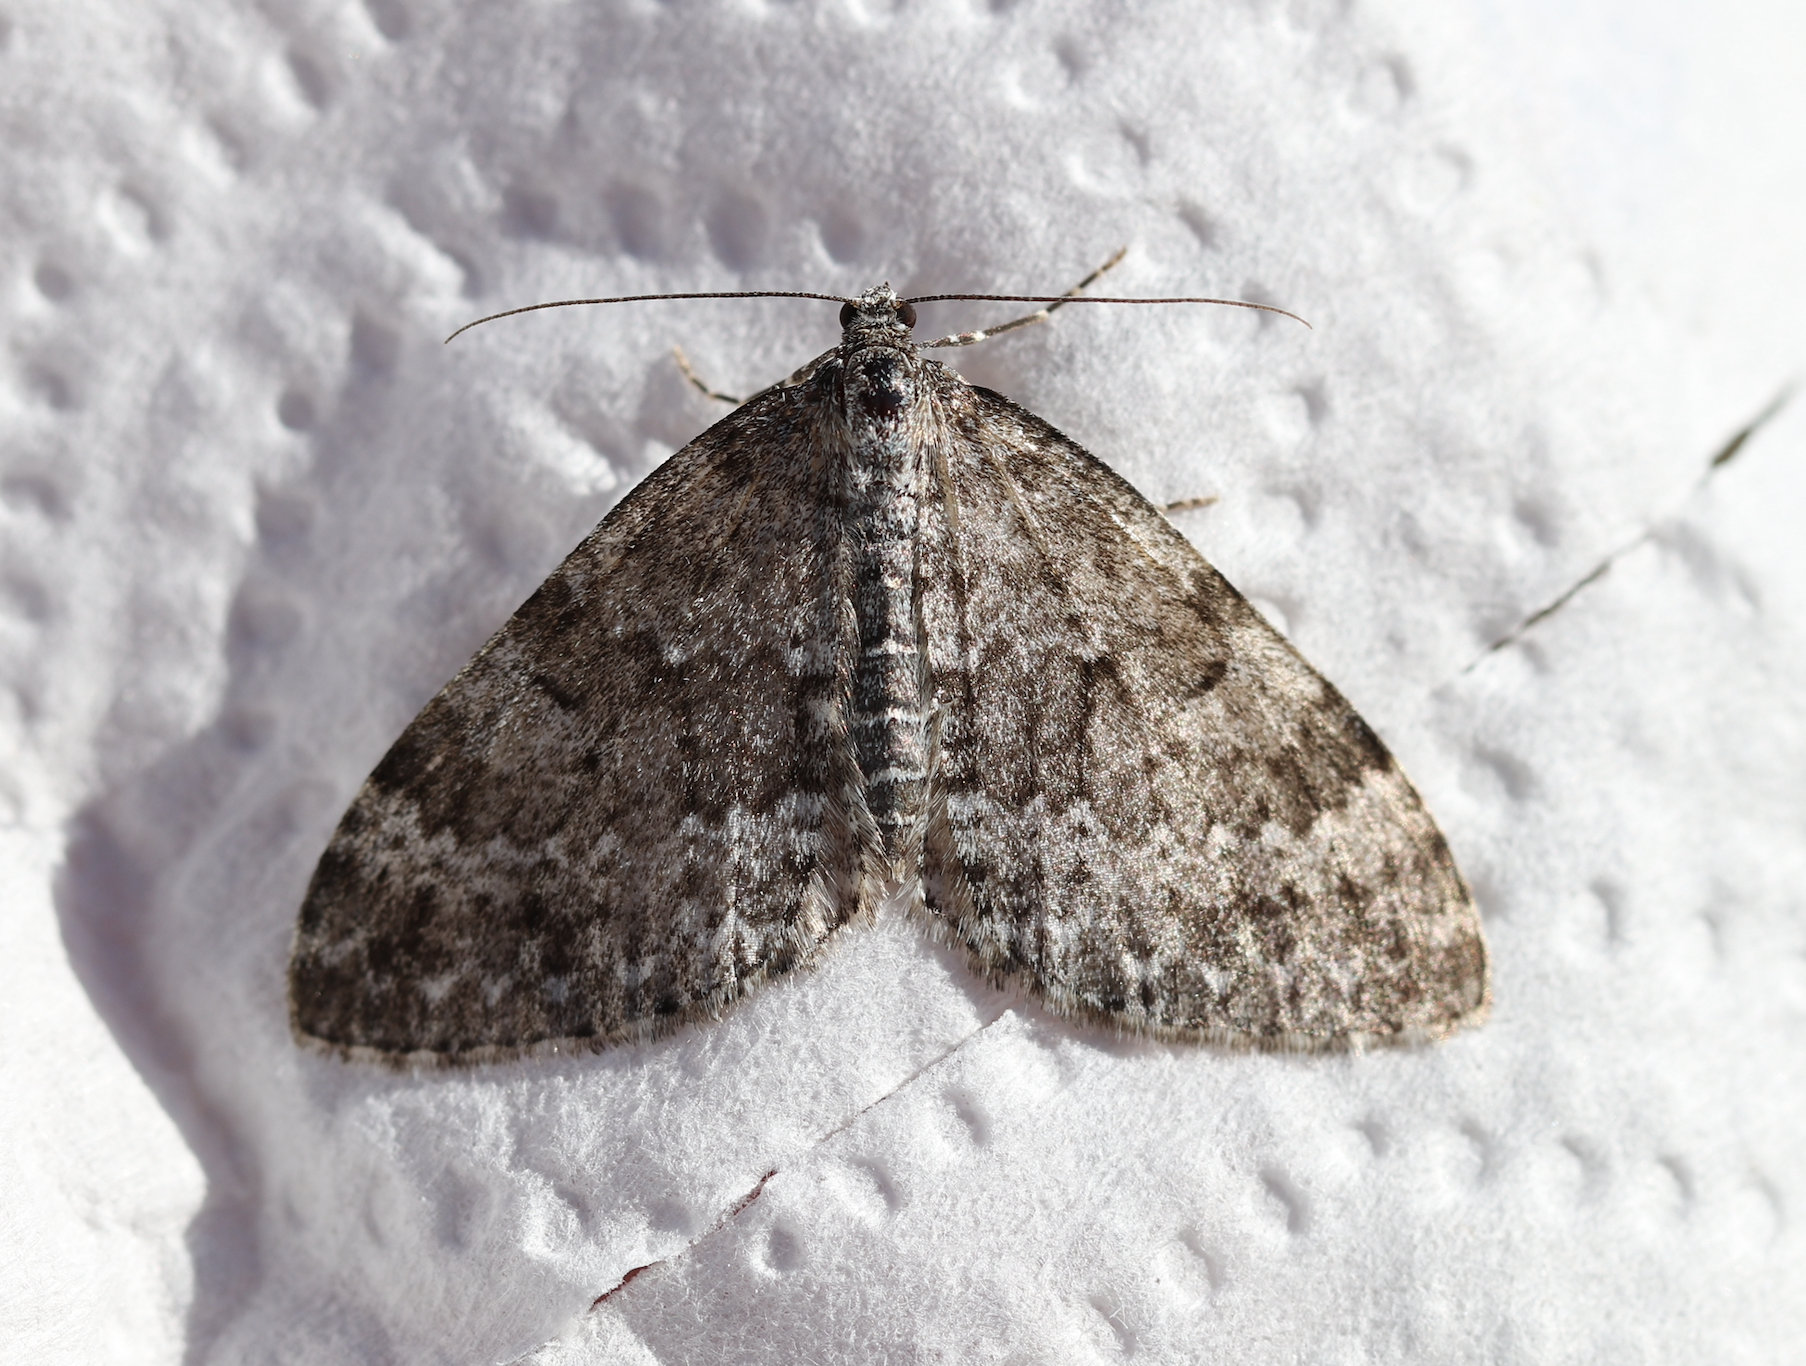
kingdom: Animalia
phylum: Arthropoda
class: Insecta
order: Lepidoptera
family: Geometridae
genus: Entephria
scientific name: Entephria caesiata
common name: Grey mountain moth
